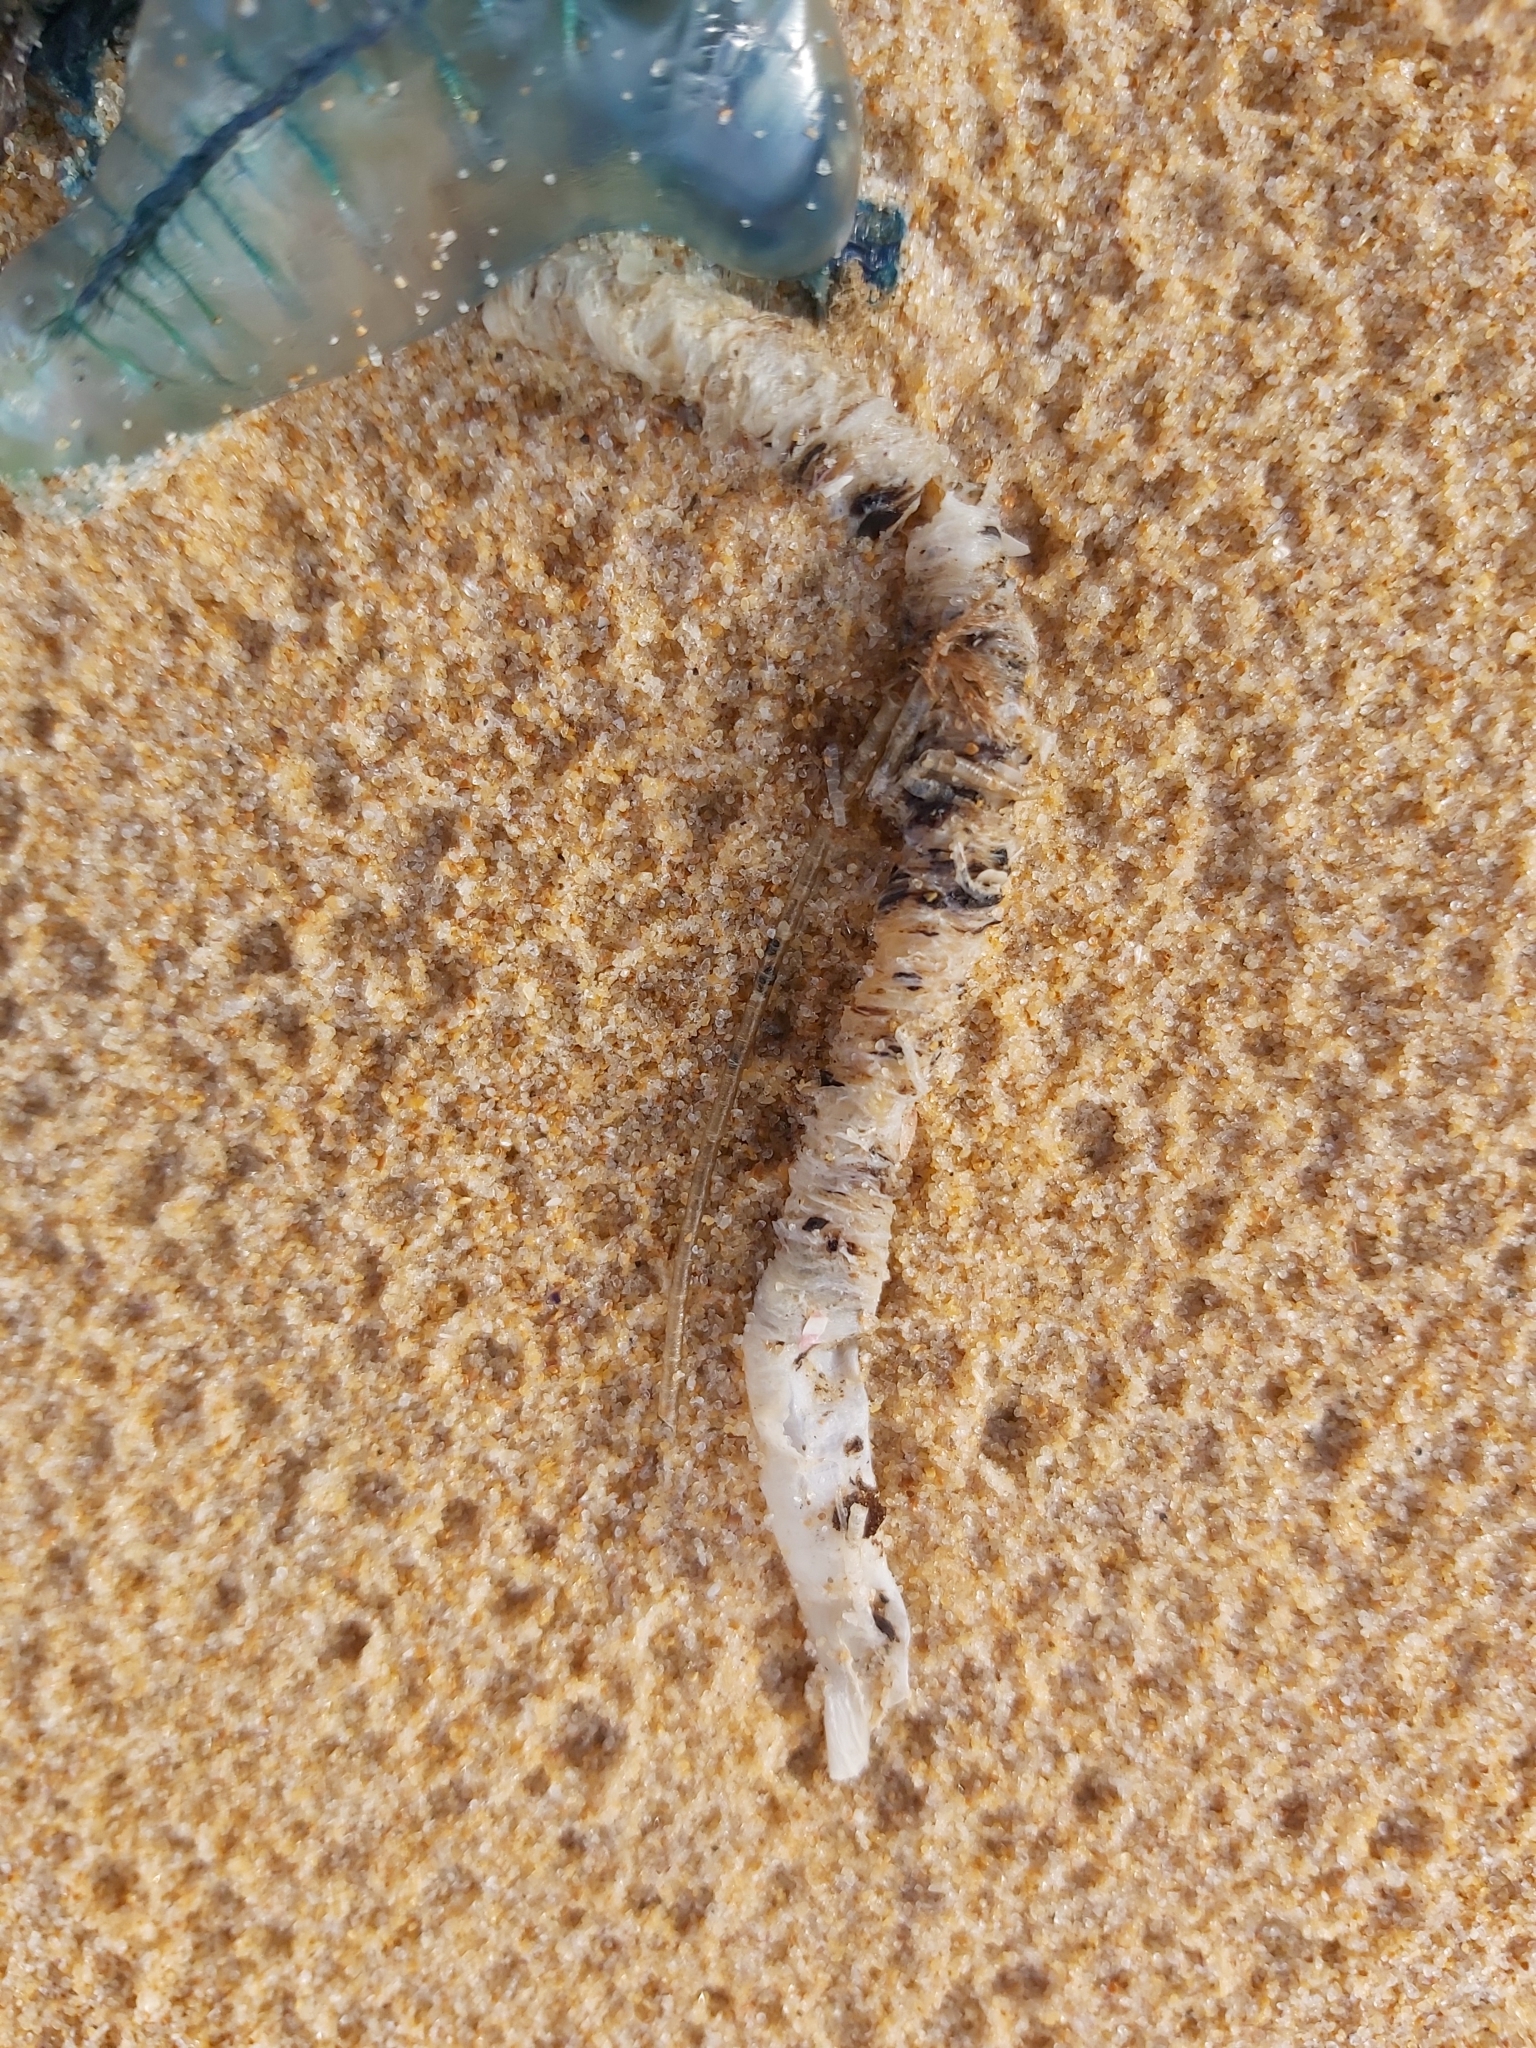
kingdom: Animalia
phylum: Annelida
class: Polychaeta
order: Eunicida
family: Onuphidae
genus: Diopatra
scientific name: Diopatra dentata
